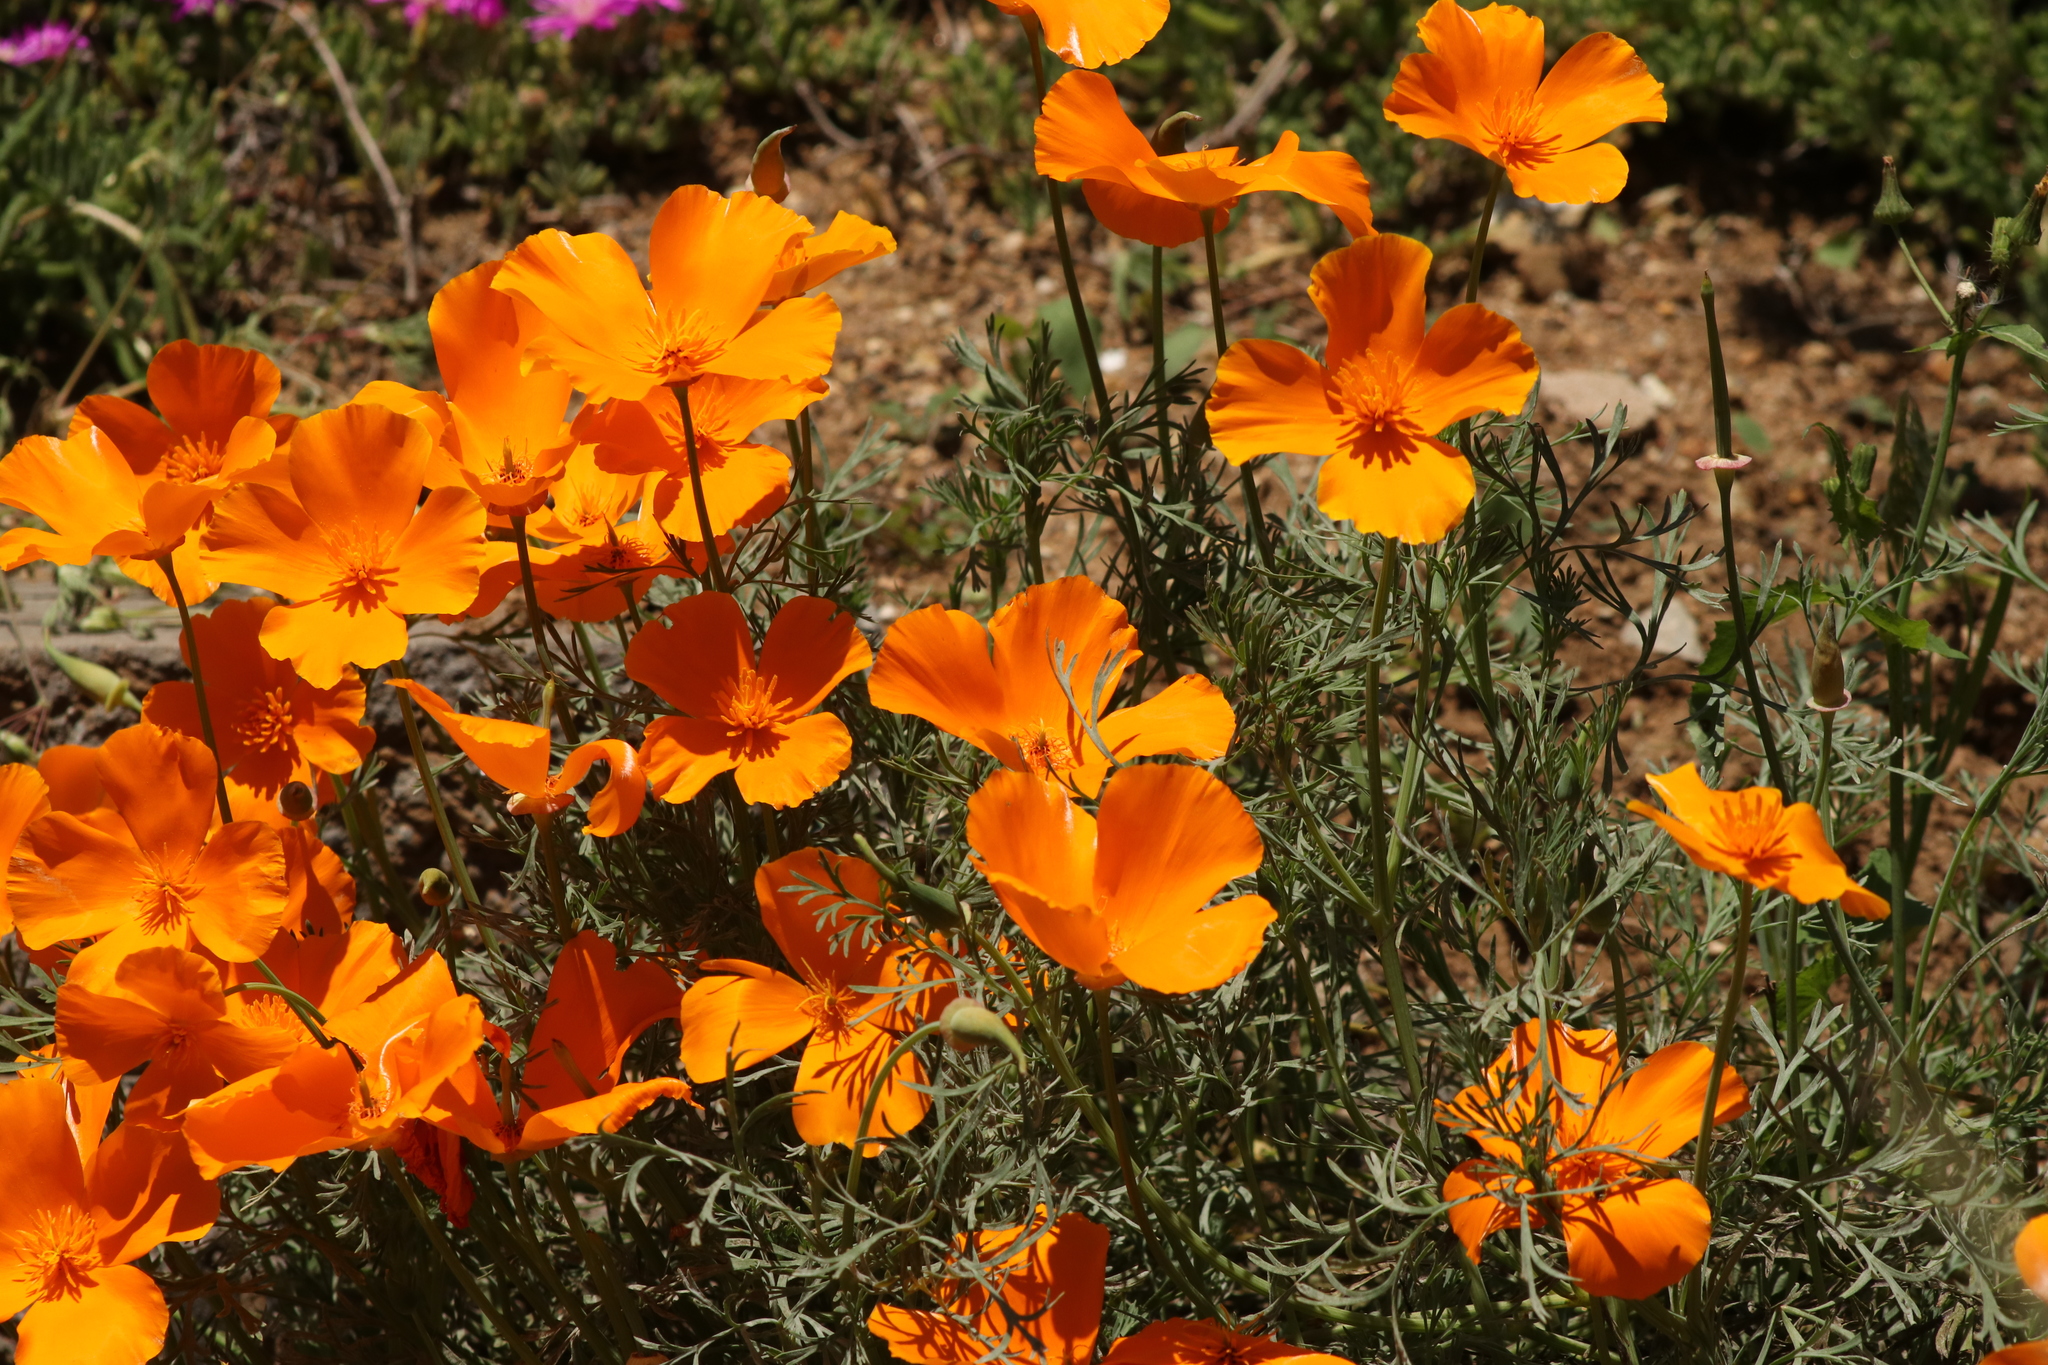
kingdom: Plantae
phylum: Tracheophyta
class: Magnoliopsida
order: Ranunculales
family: Papaveraceae
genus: Eschscholzia
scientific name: Eschscholzia californica
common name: California poppy
